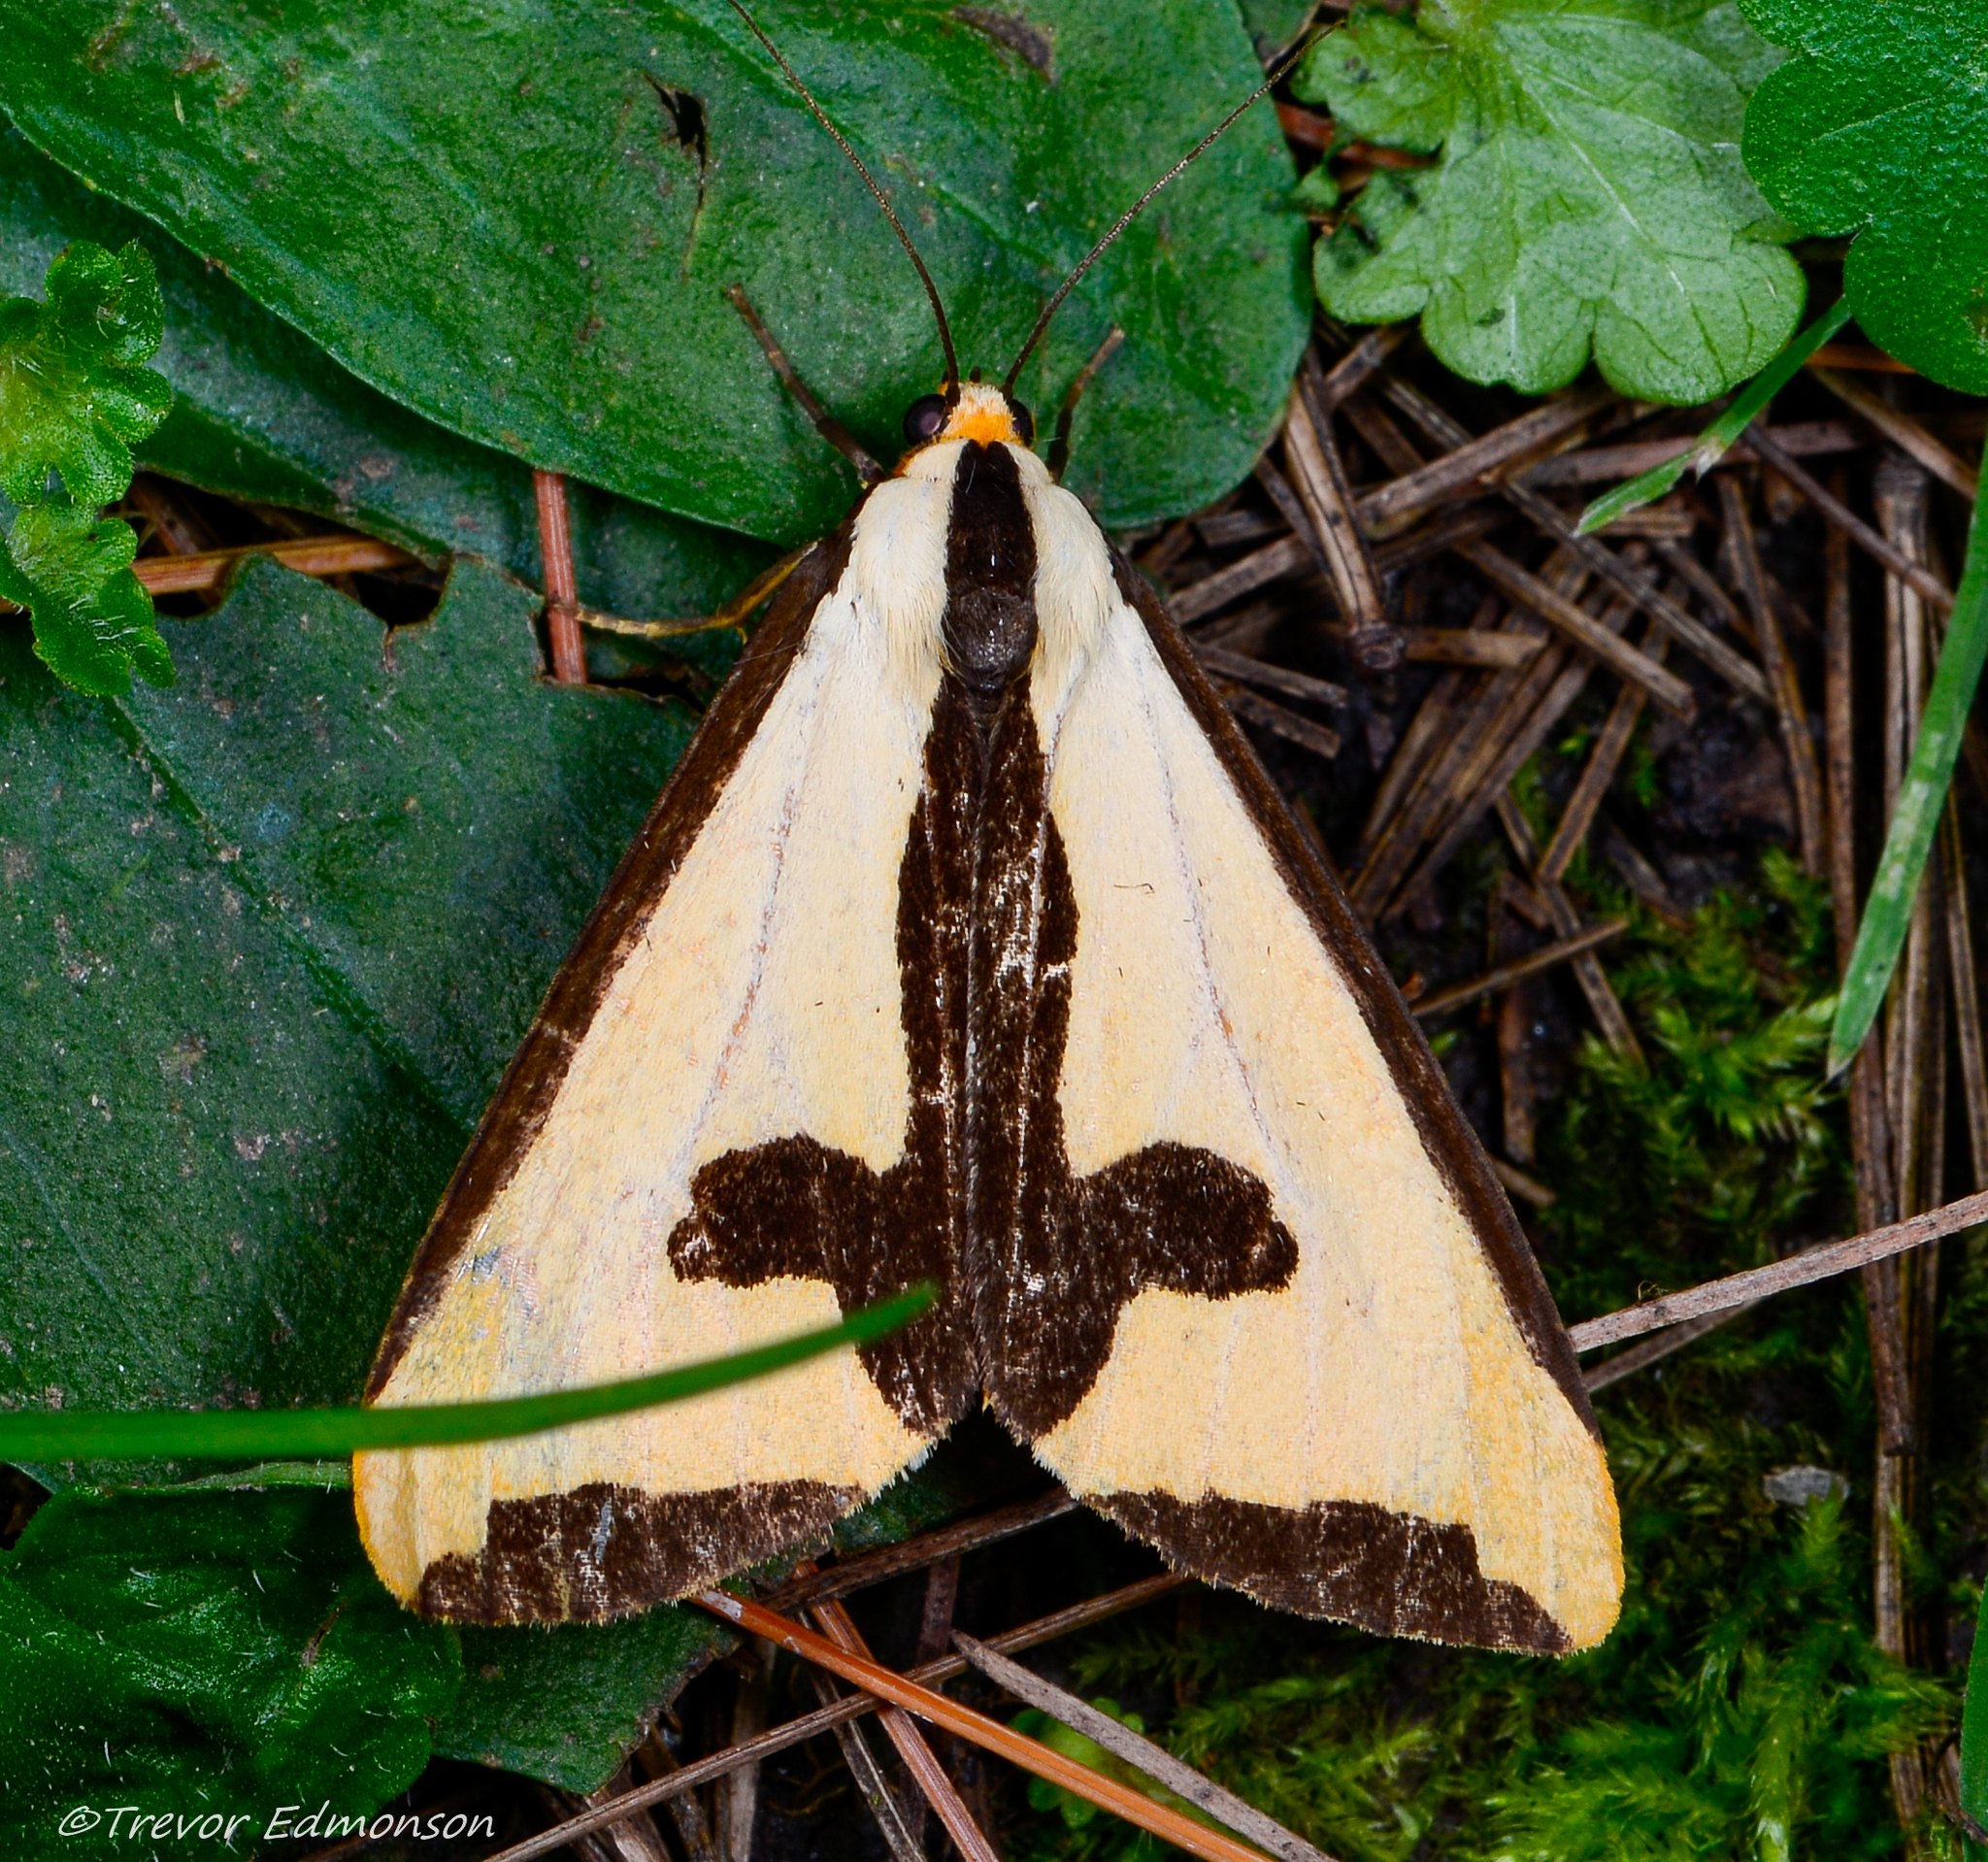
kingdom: Animalia
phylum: Arthropoda
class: Insecta
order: Lepidoptera
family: Erebidae
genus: Haploa
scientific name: Haploa clymene
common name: Clymene moth
